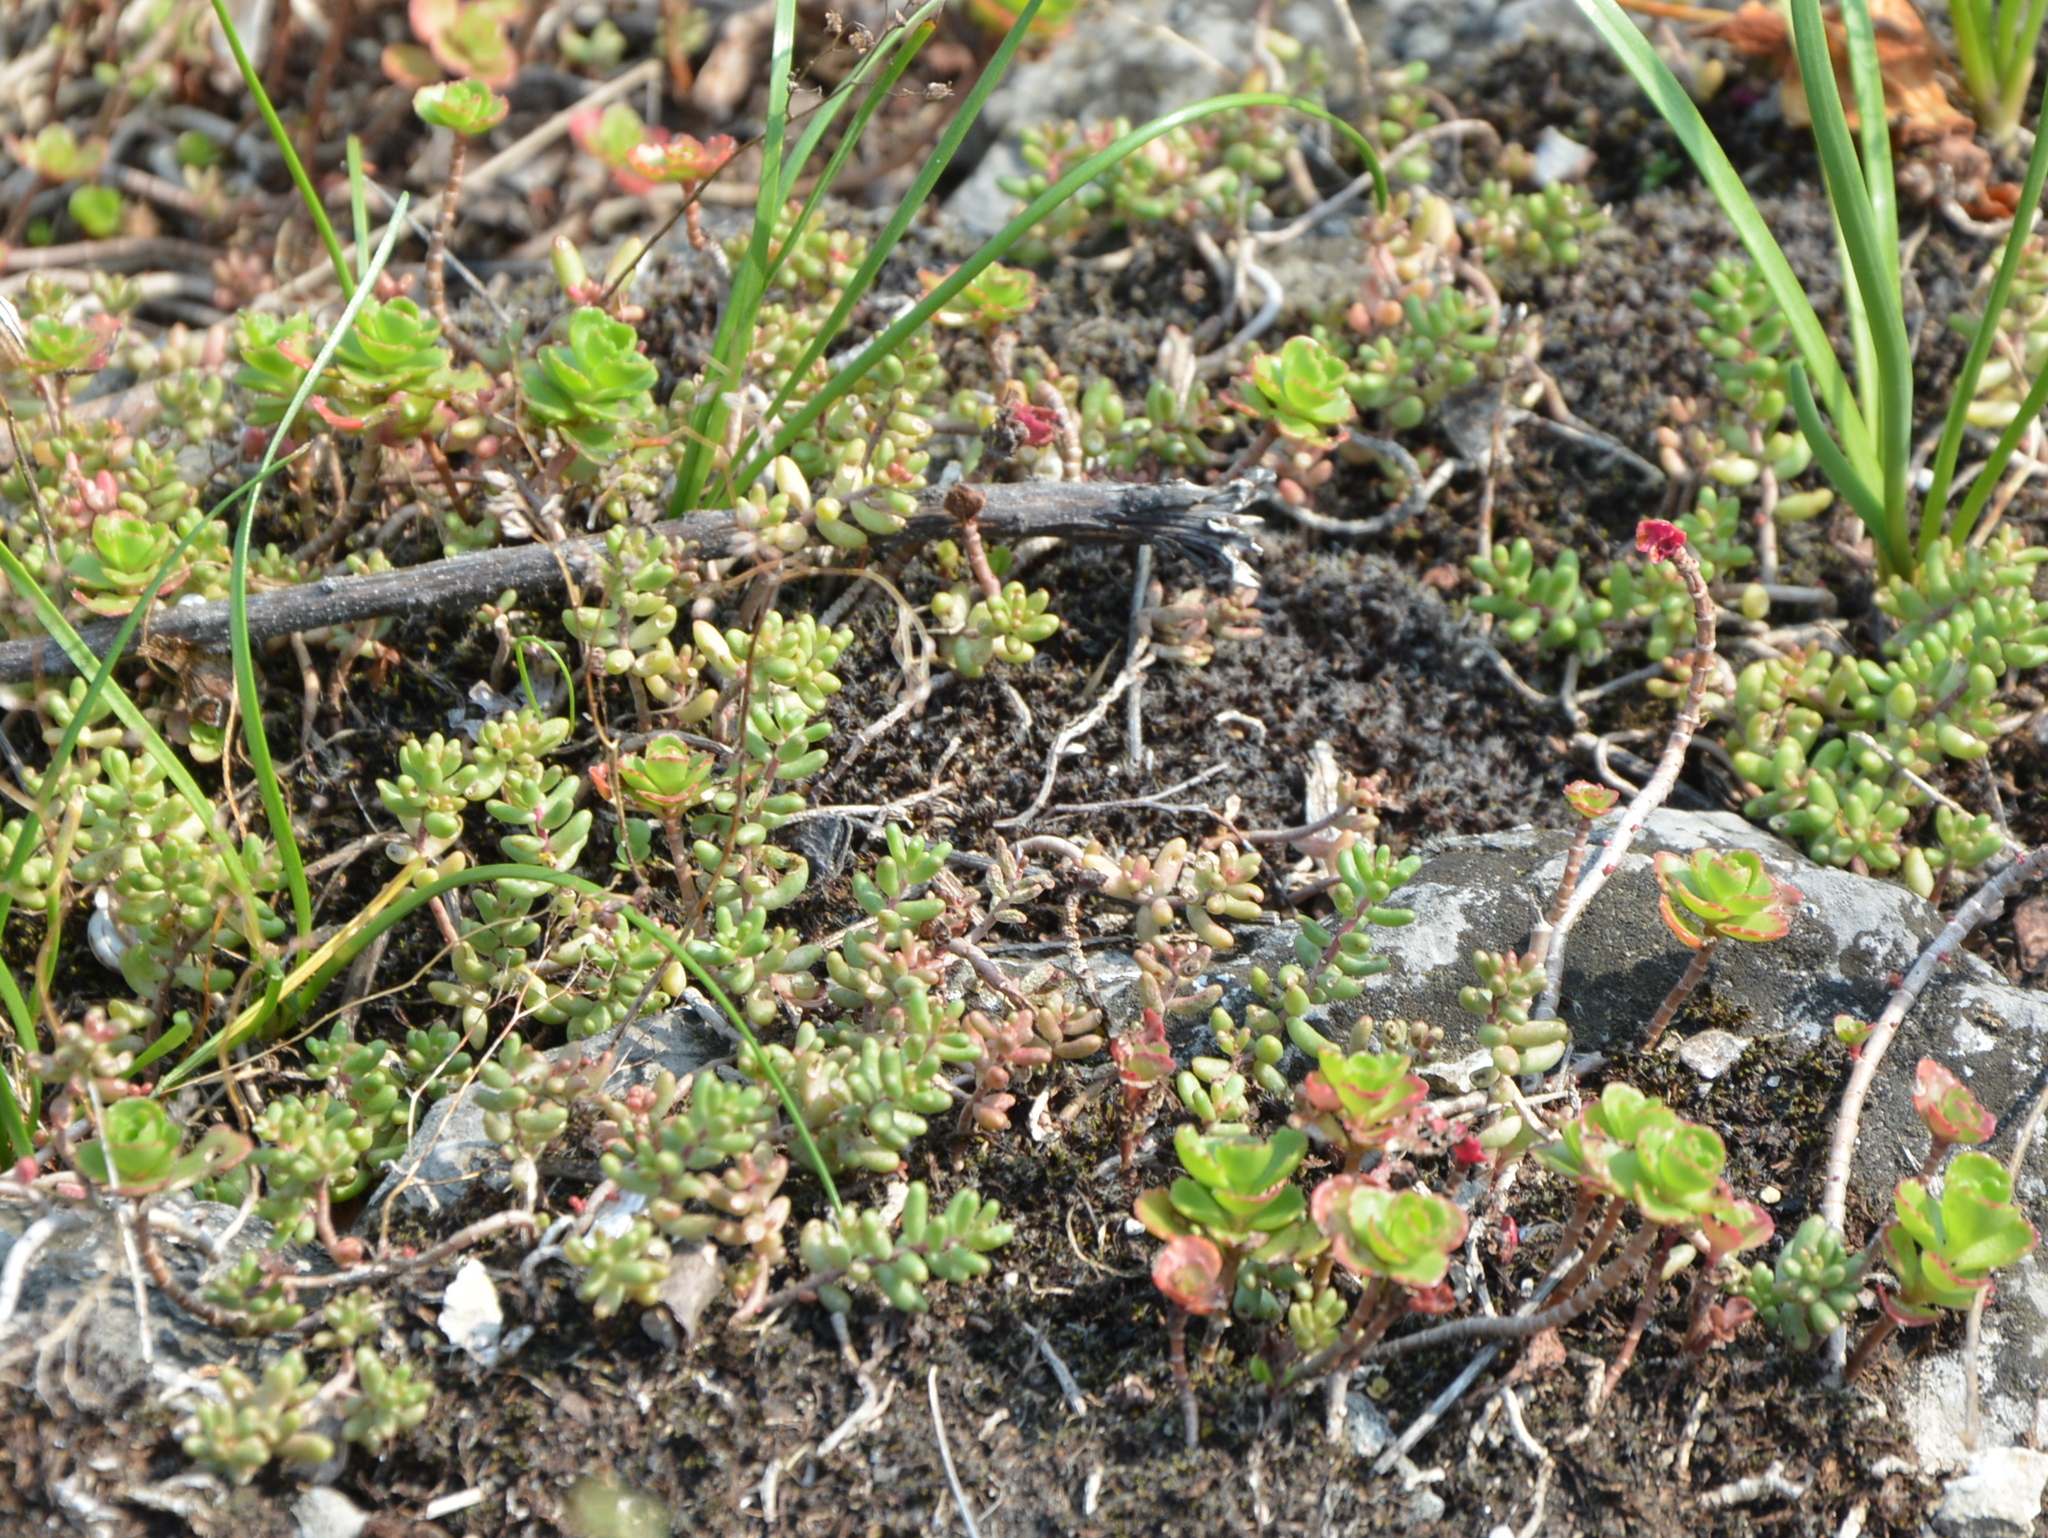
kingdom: Plantae
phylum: Tracheophyta
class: Magnoliopsida
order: Saxifragales
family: Crassulaceae
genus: Sedum
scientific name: Sedum album
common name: White stonecrop
